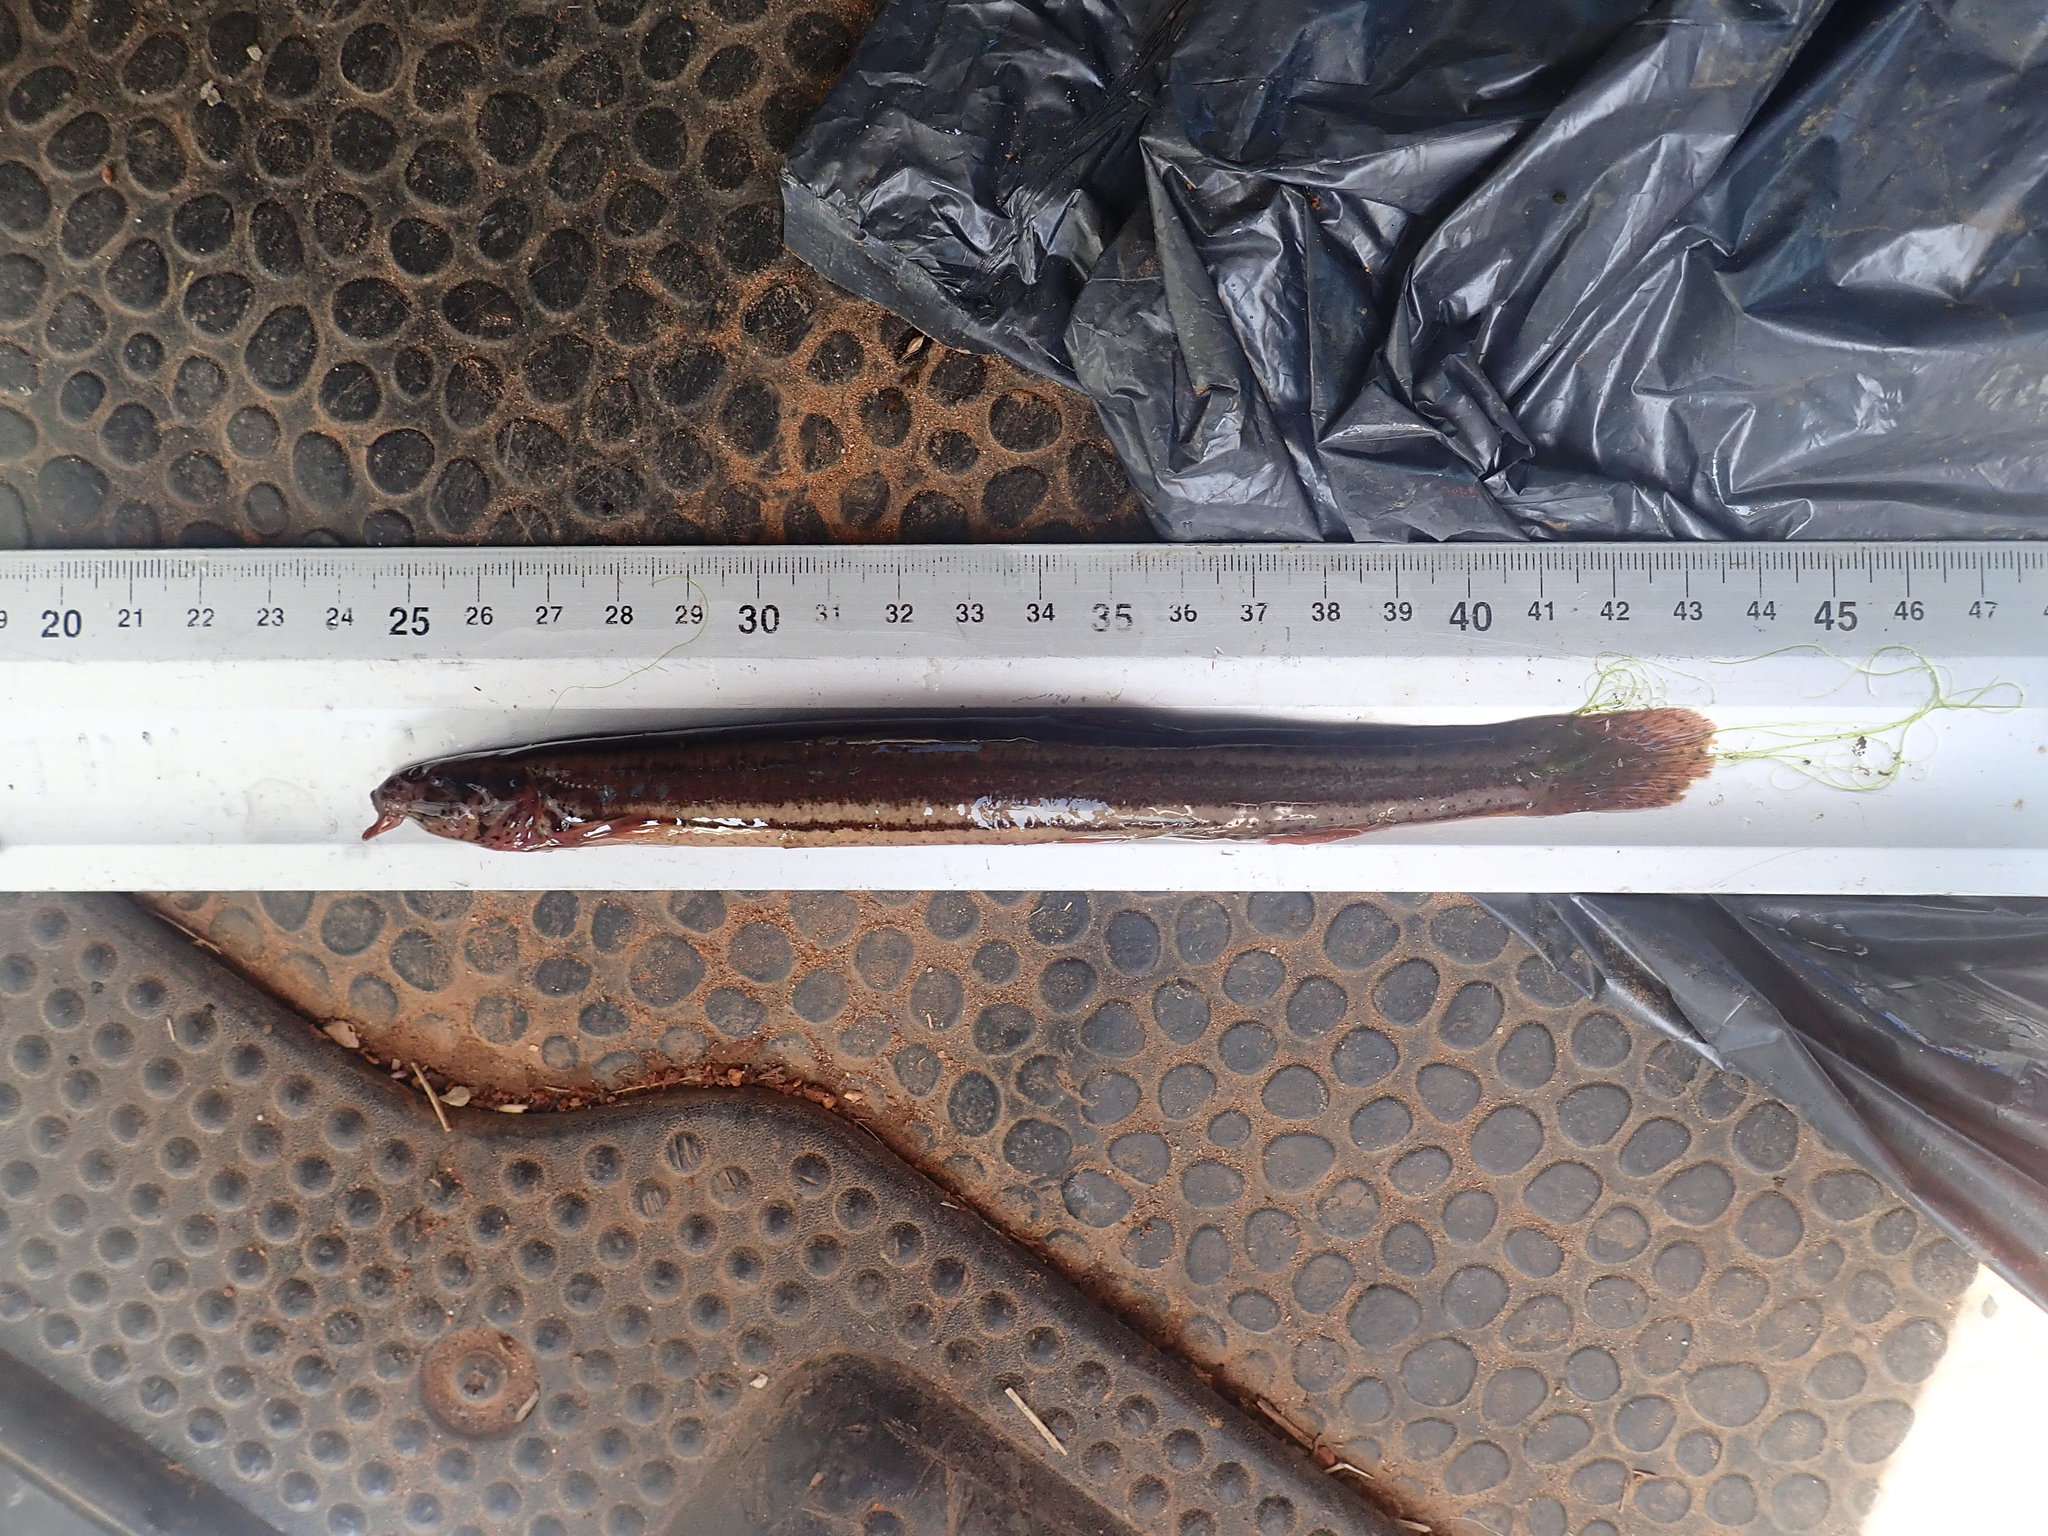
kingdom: Animalia
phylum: Chordata
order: Cypriniformes
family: Cobitidae
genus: Misgurnus
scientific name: Misgurnus fossilis
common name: Weatherfish
